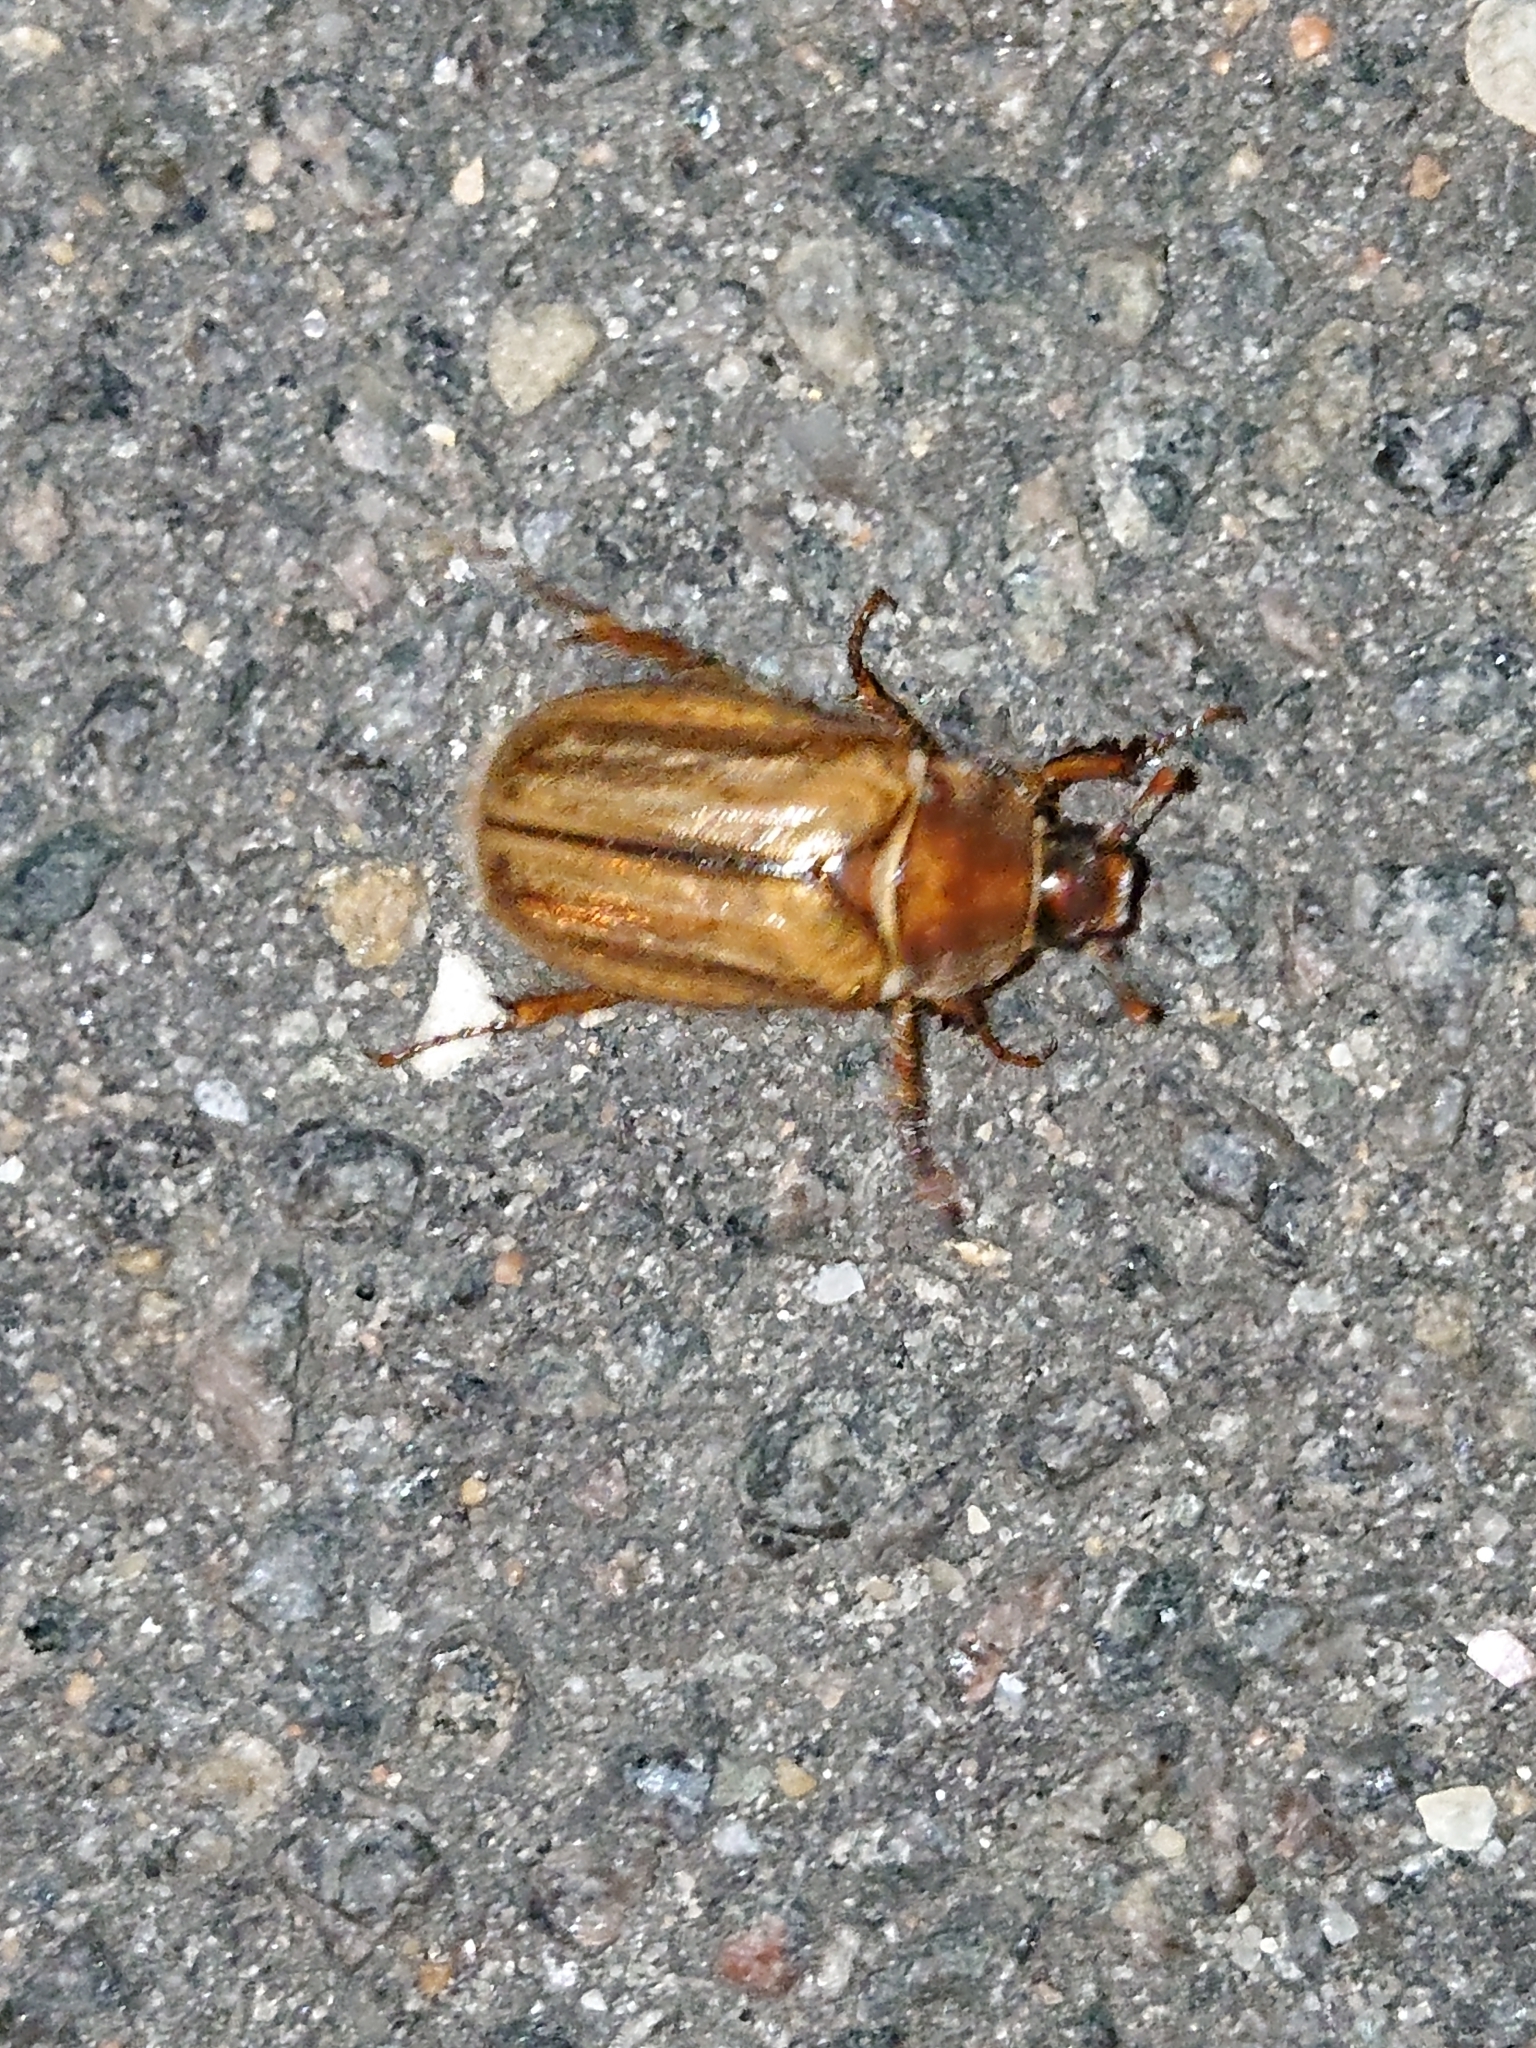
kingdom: Animalia
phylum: Arthropoda
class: Insecta
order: Coleoptera
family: Scarabaeidae
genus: Amphimallon
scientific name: Amphimallon solstitiale
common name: Summer chafer
